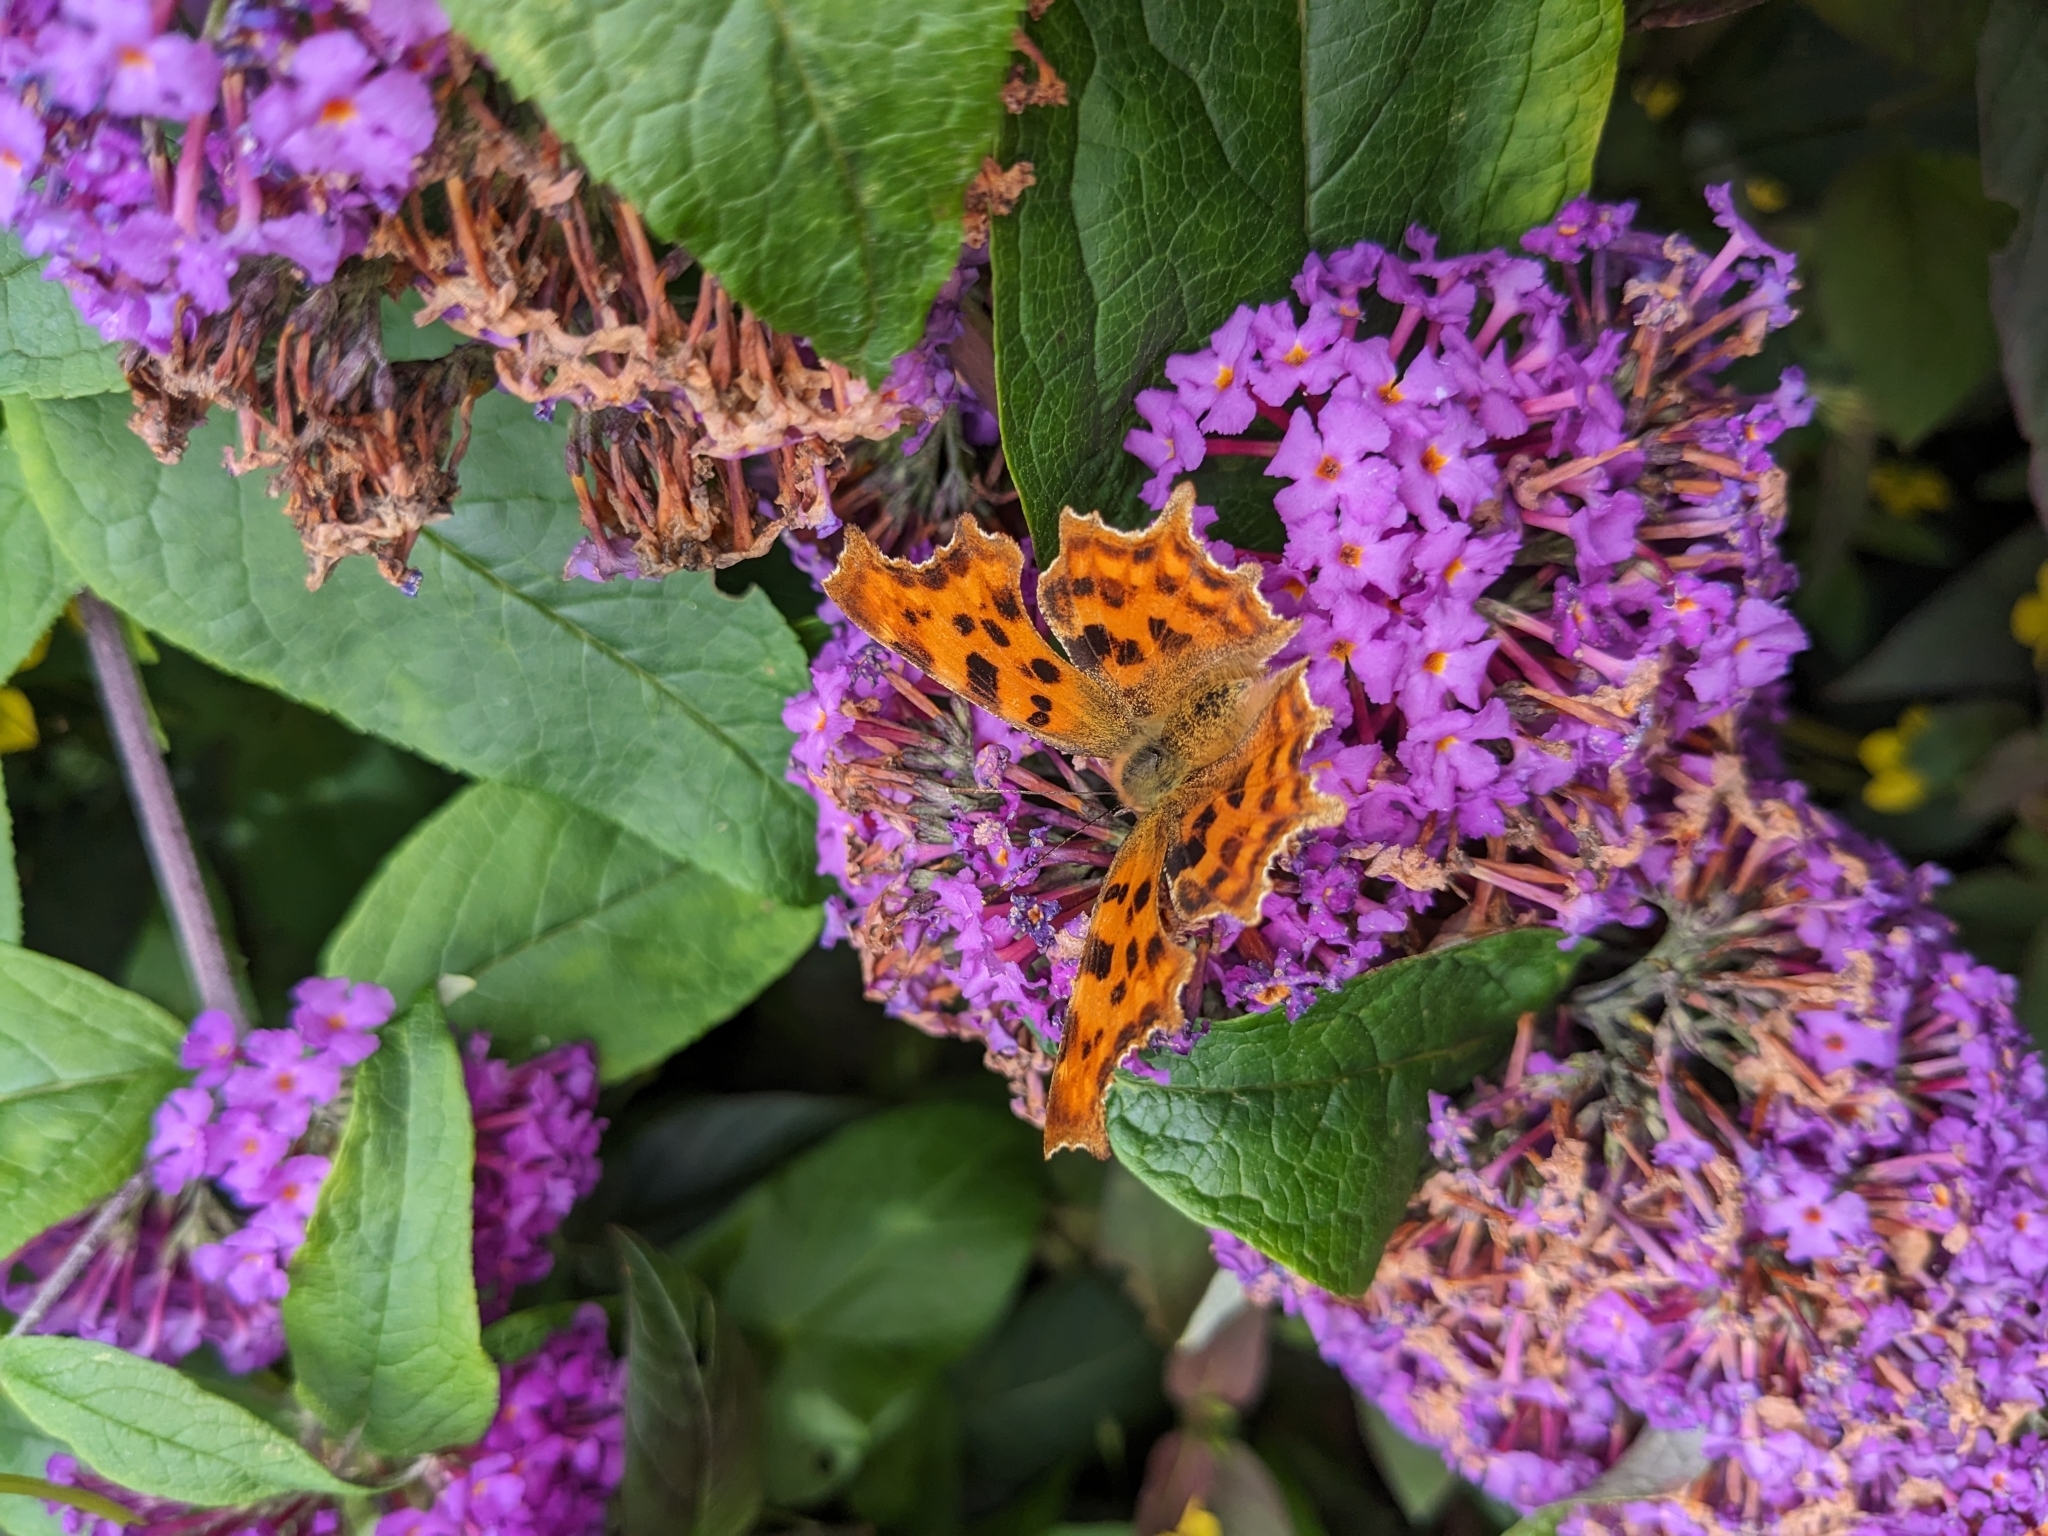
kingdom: Animalia
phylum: Arthropoda
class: Insecta
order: Lepidoptera
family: Nymphalidae
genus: Polygonia
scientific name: Polygonia c-album
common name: Comma
